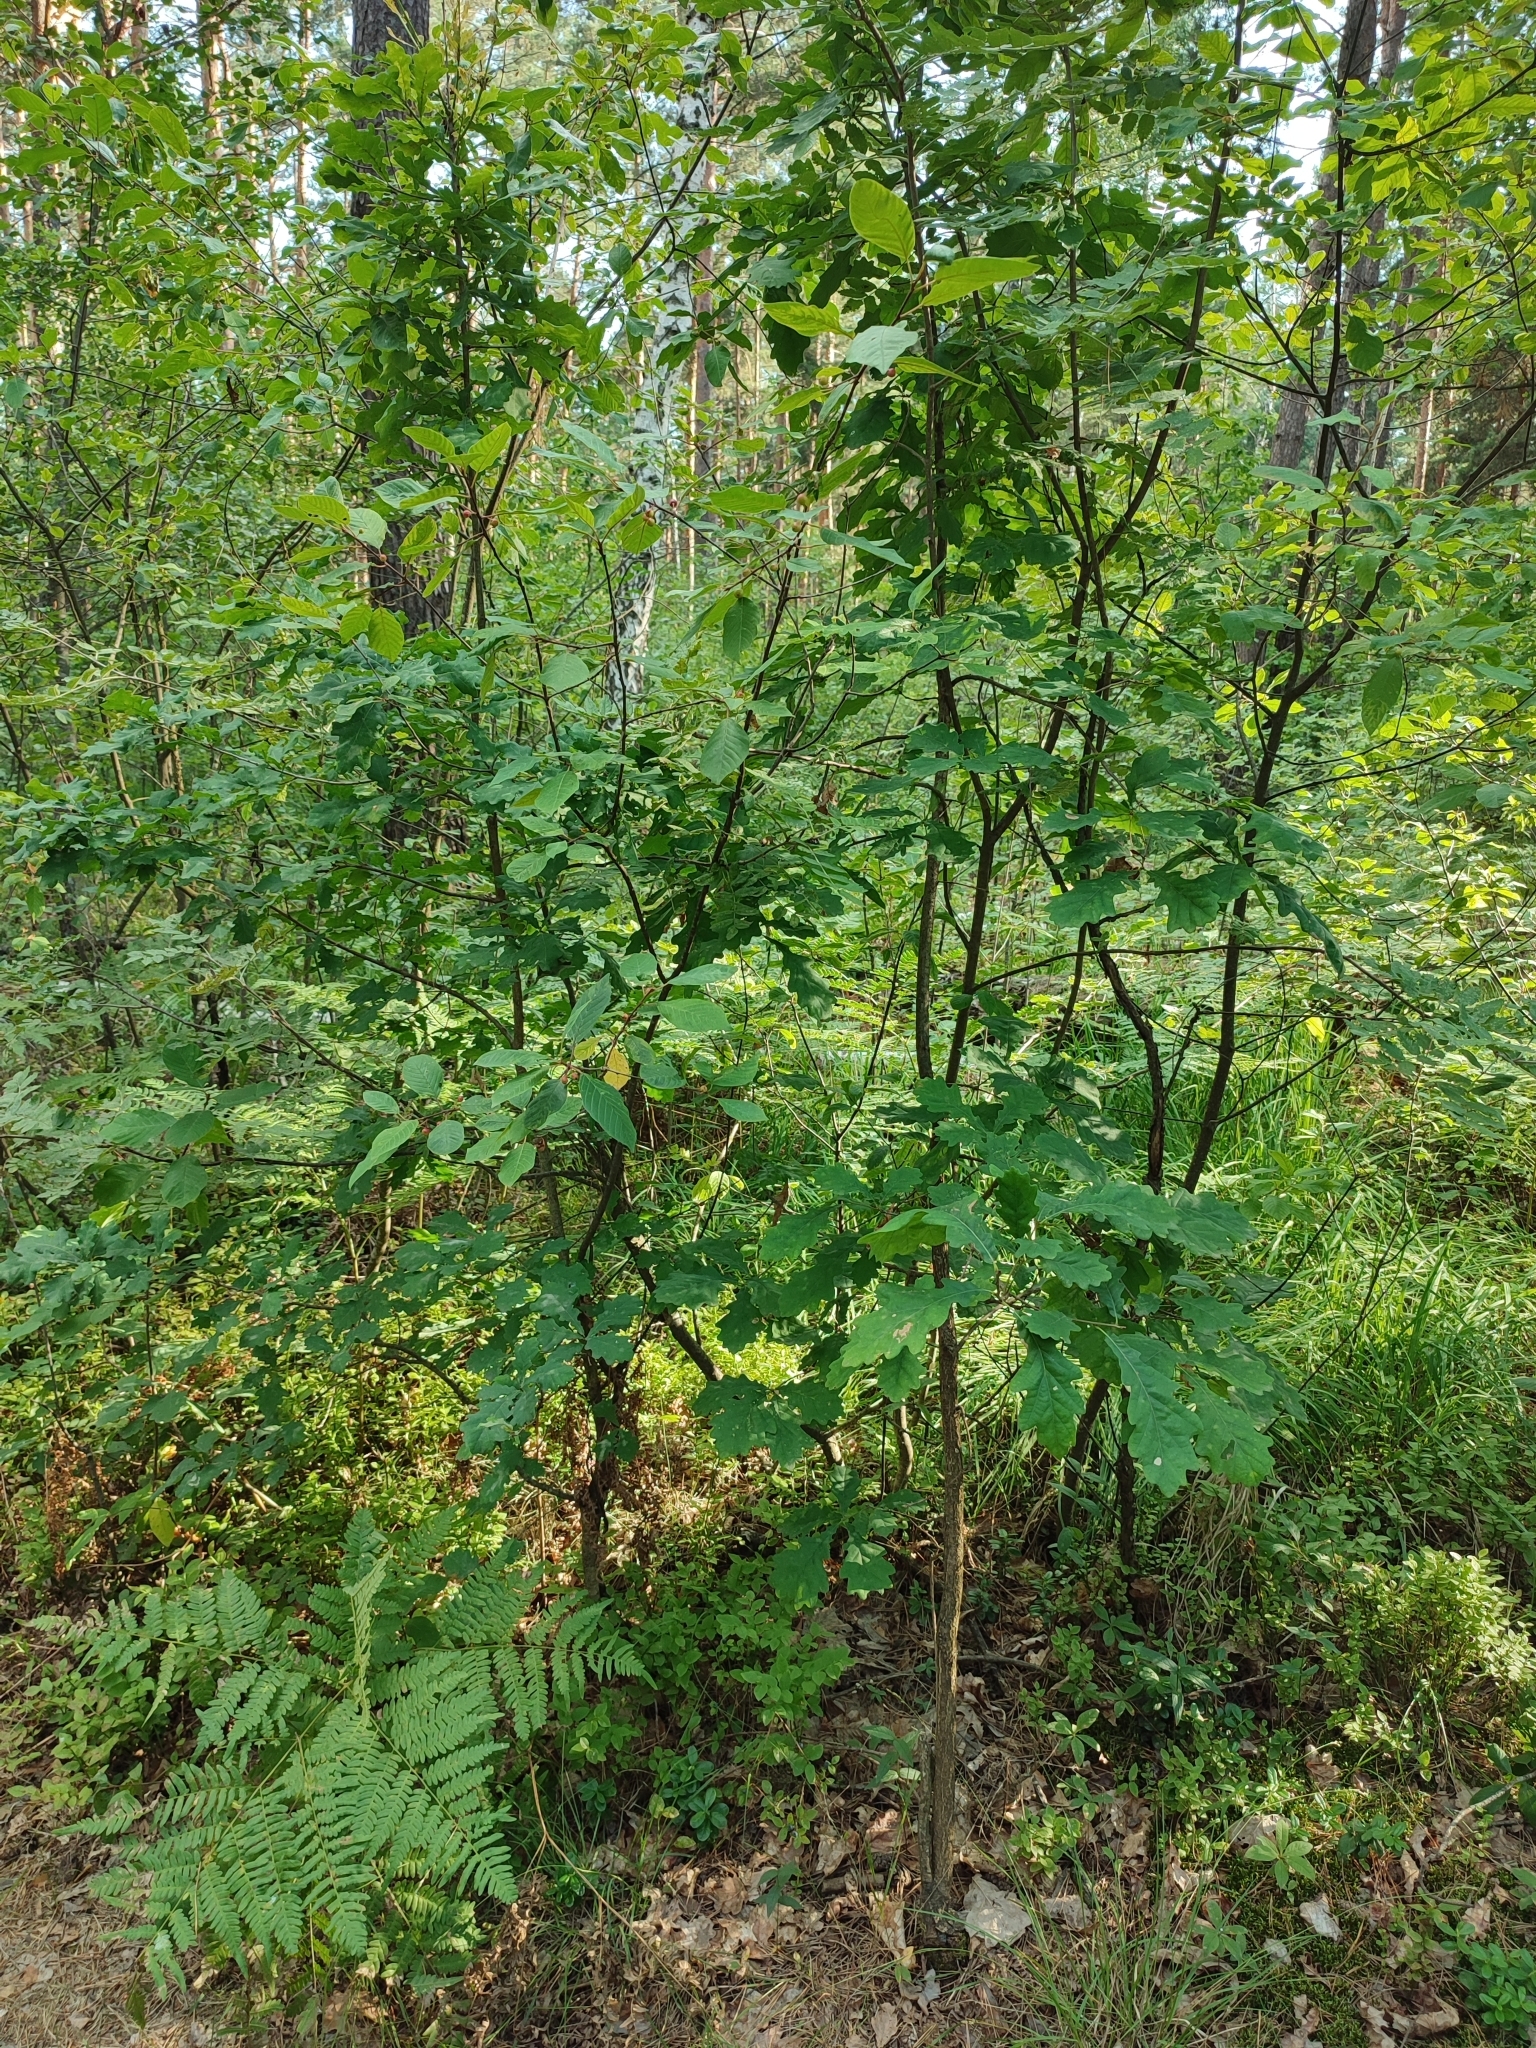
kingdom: Plantae
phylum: Tracheophyta
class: Magnoliopsida
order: Fagales
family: Fagaceae
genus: Quercus
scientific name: Quercus robur
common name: Pedunculate oak
